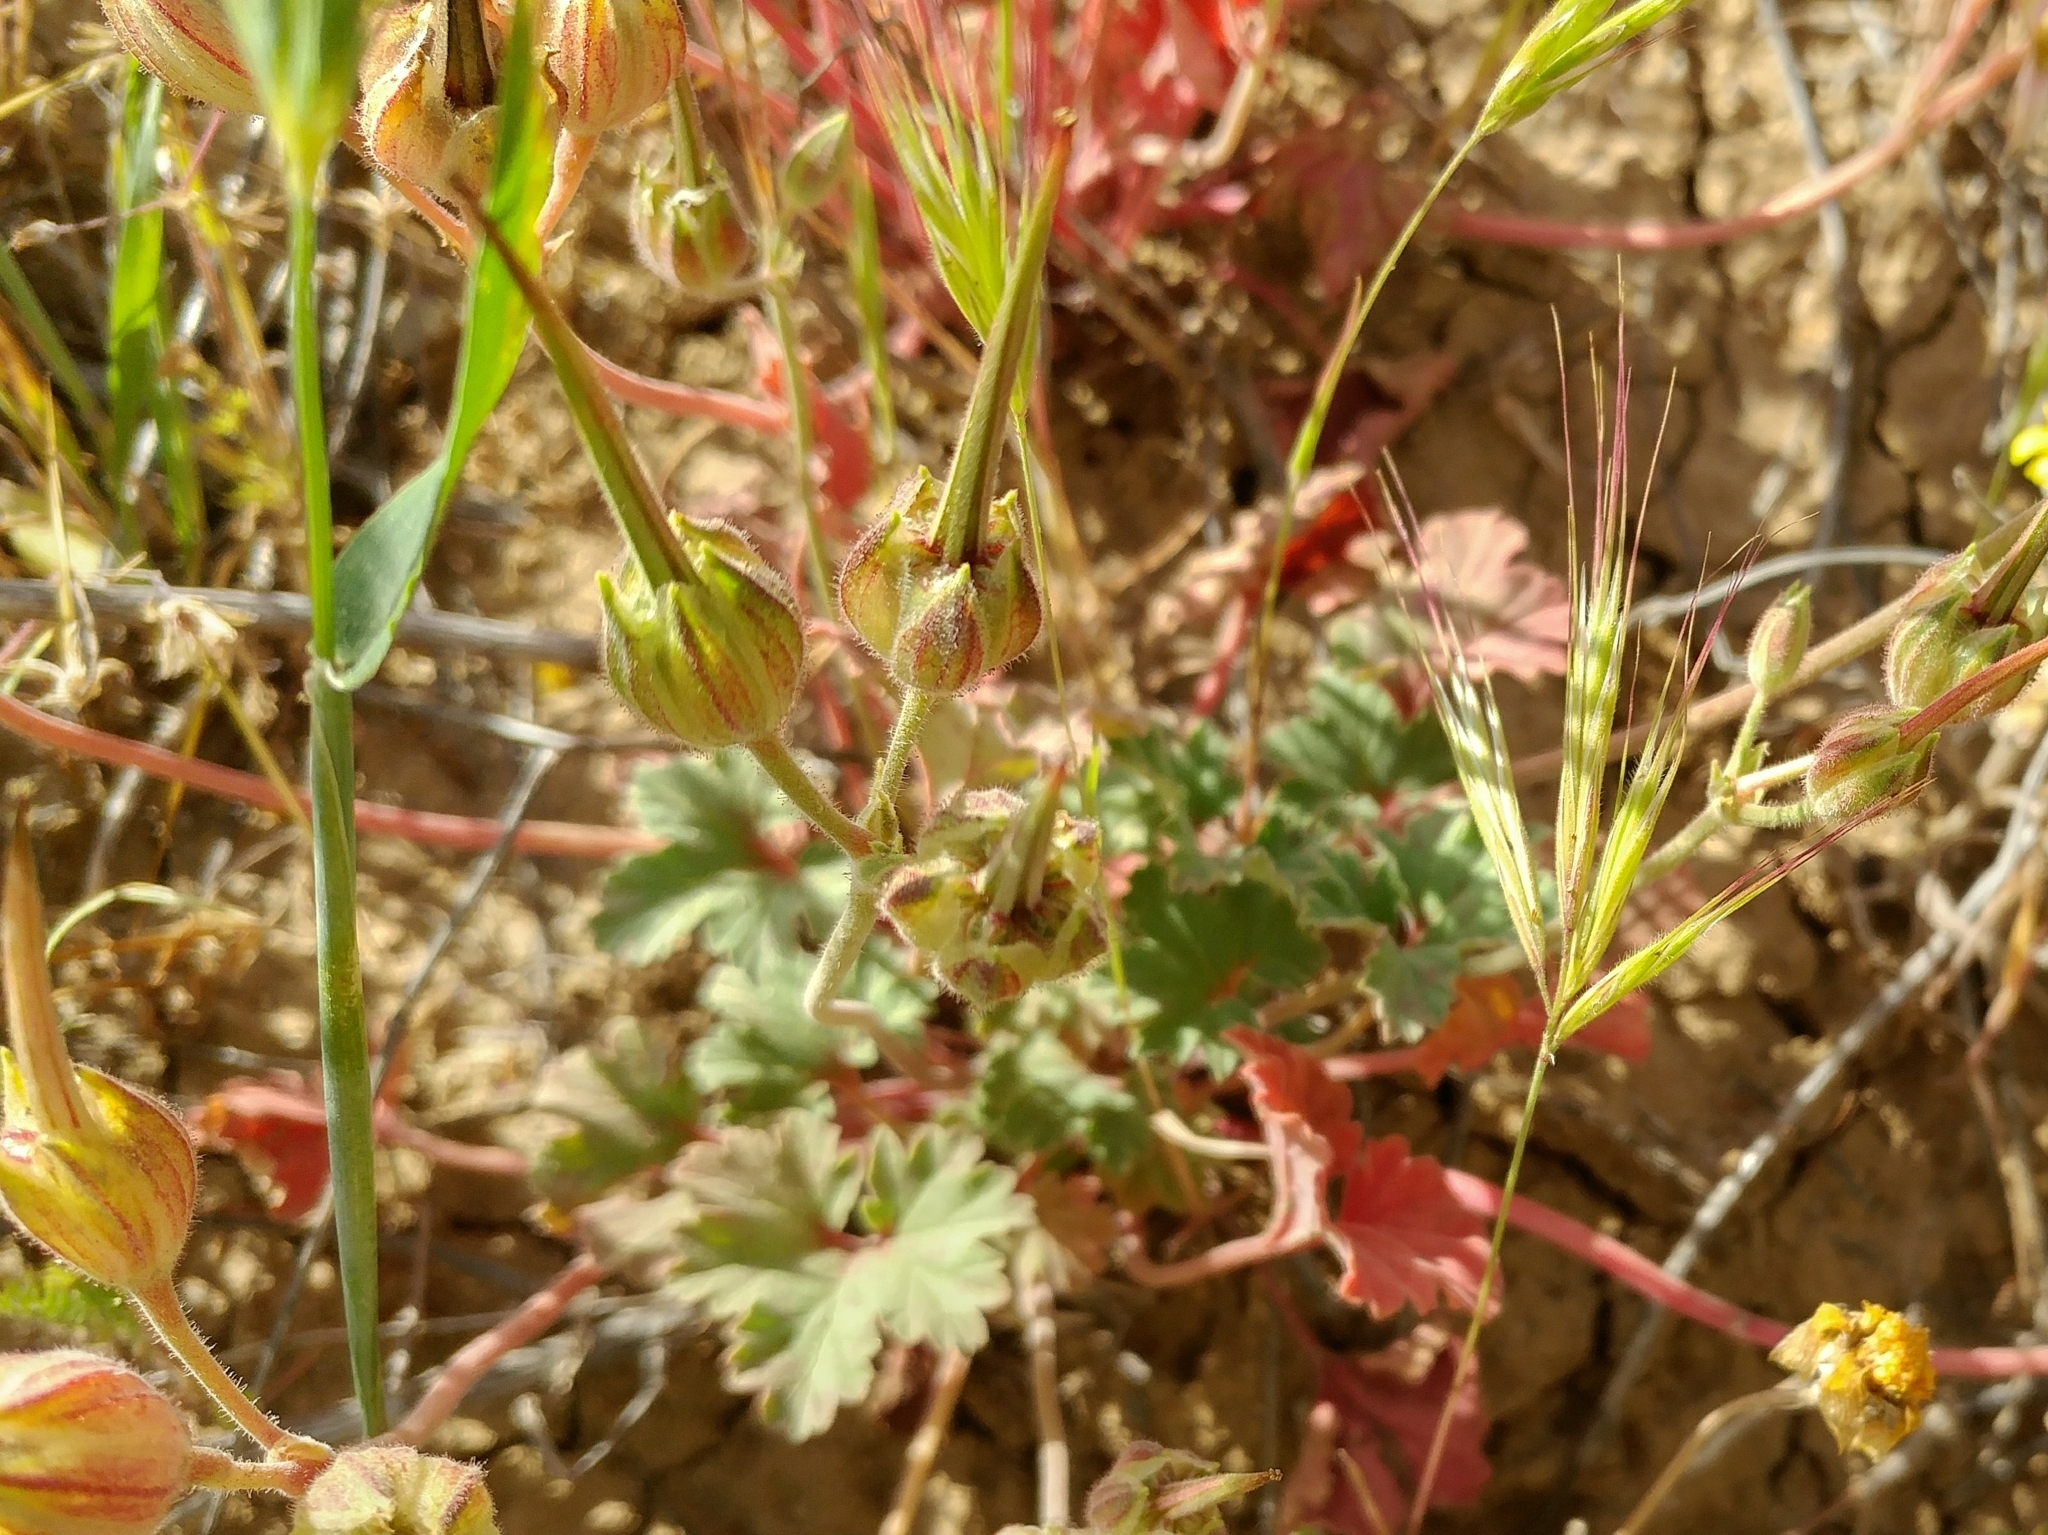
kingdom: Plantae
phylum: Tracheophyta
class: Magnoliopsida
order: Geraniales
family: Geraniaceae
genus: California
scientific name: California macrophylla
